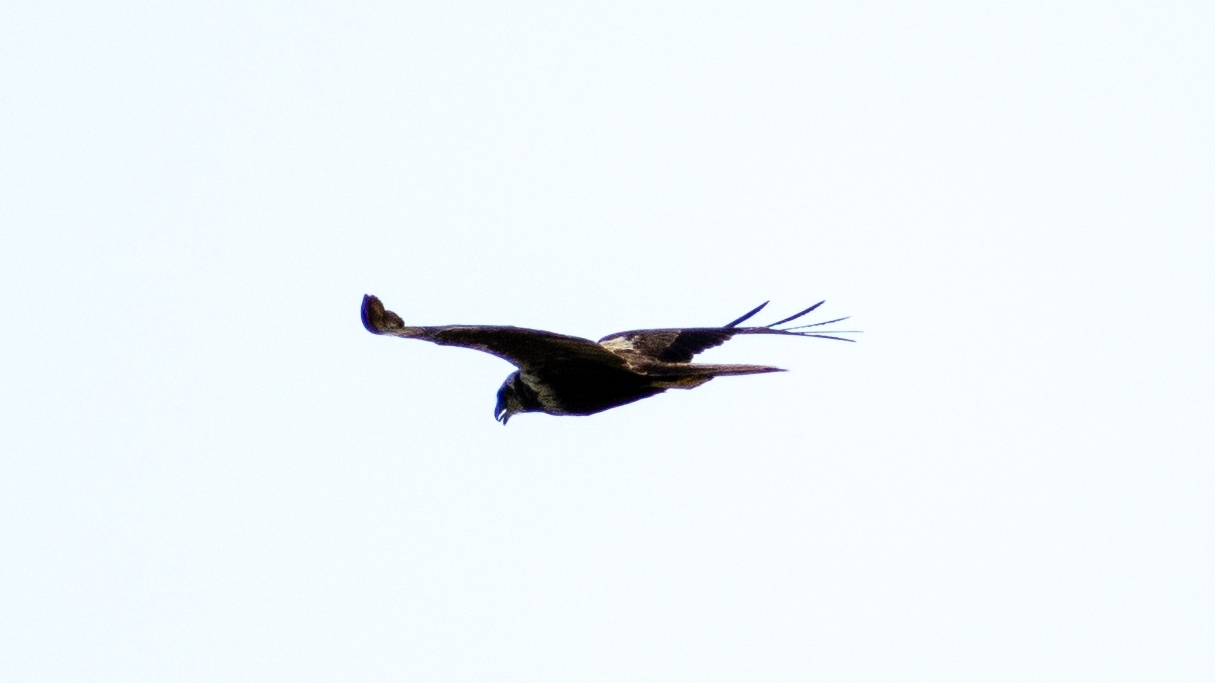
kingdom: Animalia
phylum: Chordata
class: Aves
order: Accipitriformes
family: Accipitridae
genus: Circus
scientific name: Circus aeruginosus
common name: Western marsh harrier
